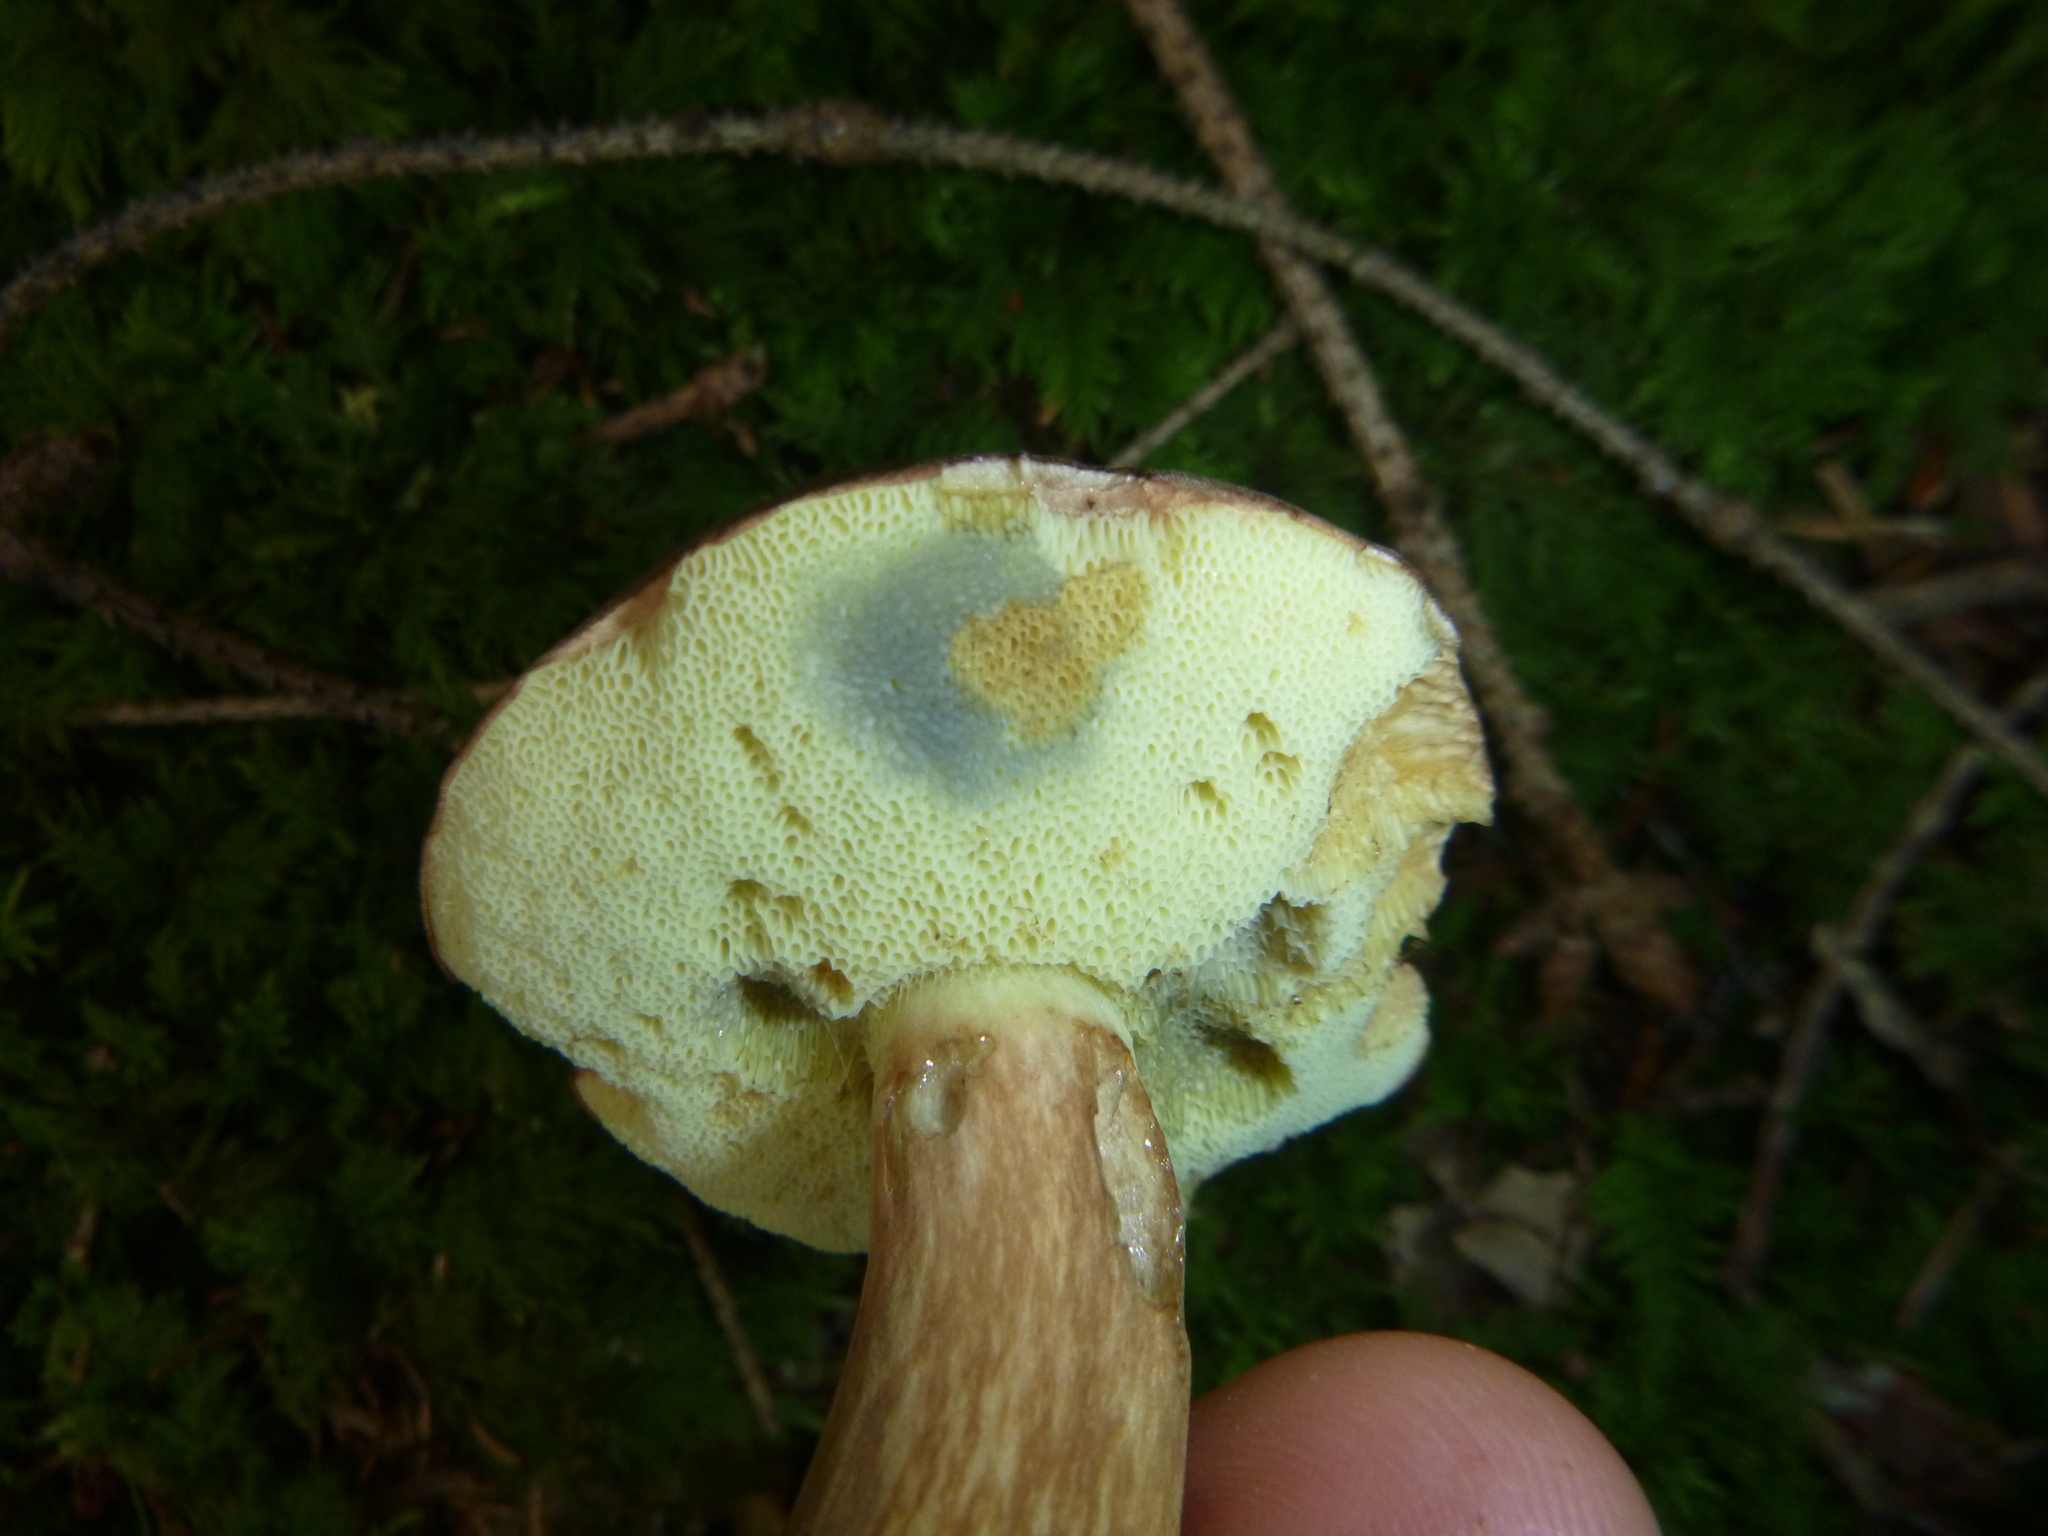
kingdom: Fungi
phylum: Basidiomycota
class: Agaricomycetes
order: Boletales
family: Boletaceae
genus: Imleria
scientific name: Imleria badia
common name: Bay bolete
